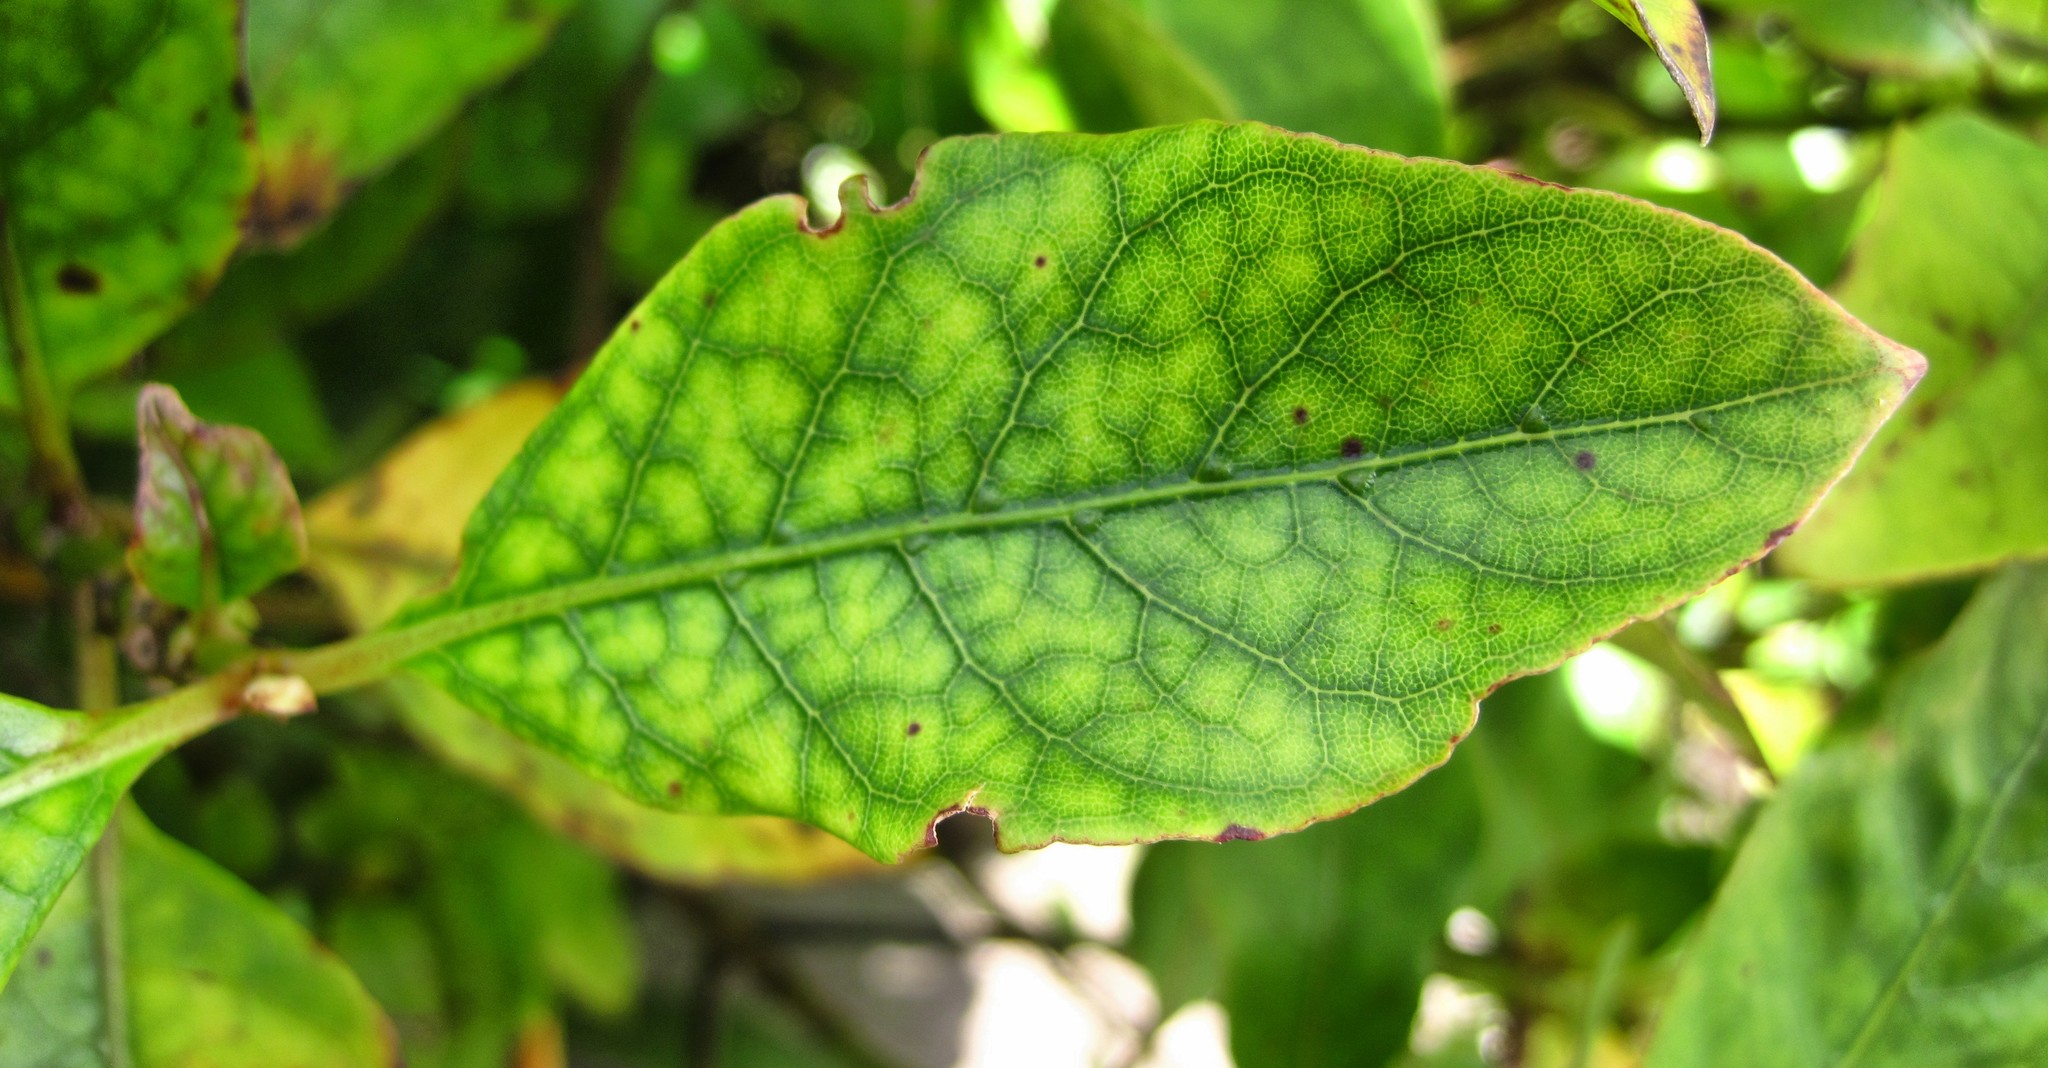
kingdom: Plantae
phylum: Tracheophyta
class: Magnoliopsida
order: Gentianales
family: Rubiaceae
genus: Coprosma
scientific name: Coprosma autumnalis
